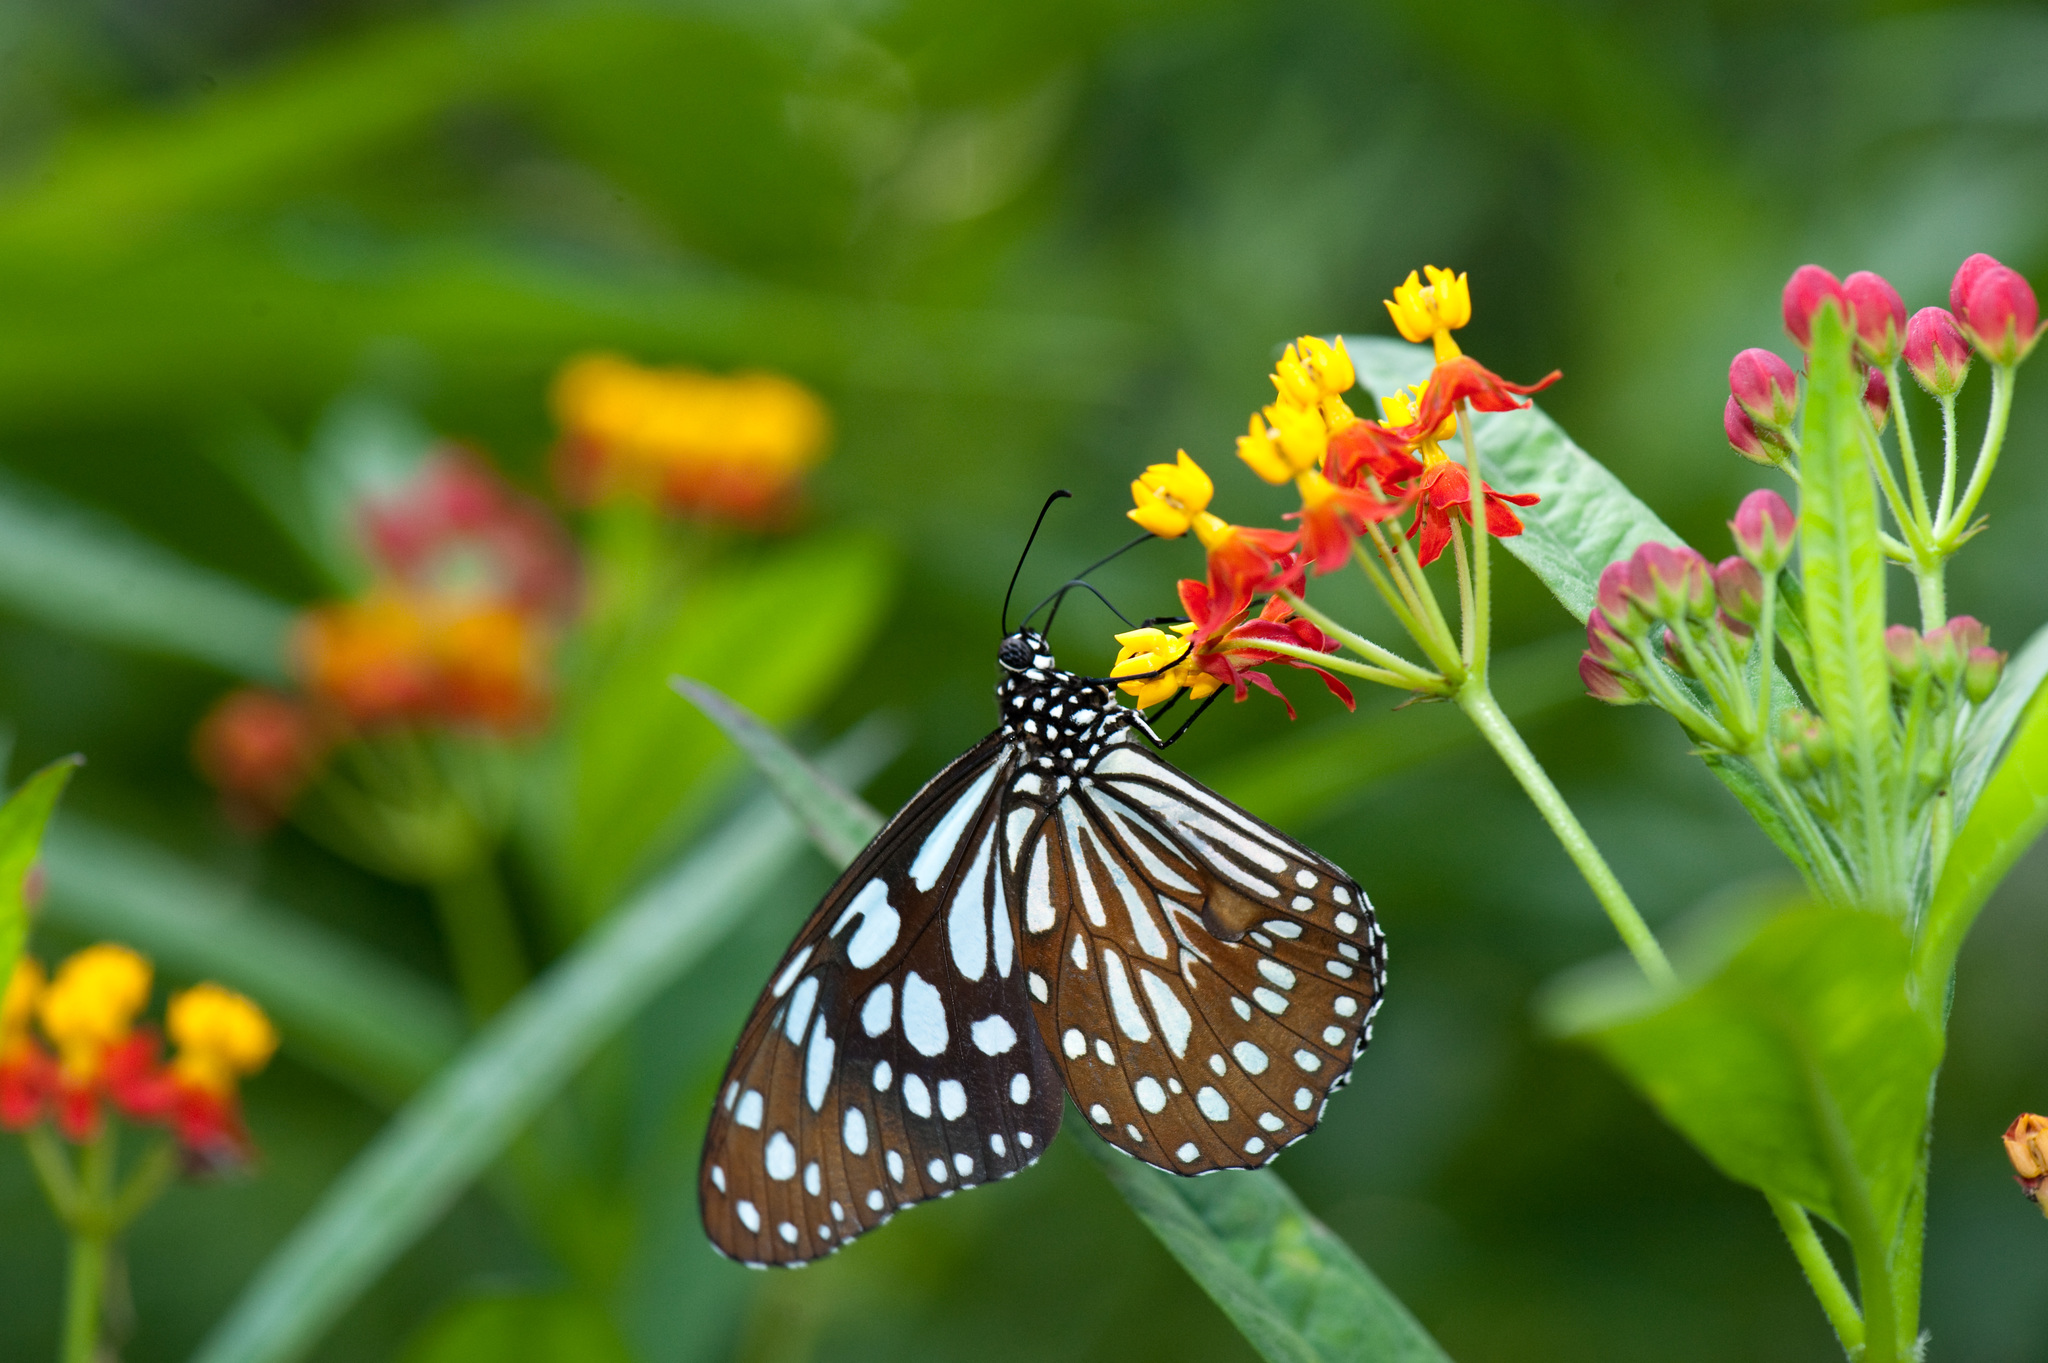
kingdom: Animalia
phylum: Arthropoda
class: Insecta
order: Lepidoptera
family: Nymphalidae
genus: Tirumala
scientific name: Tirumala limniace
